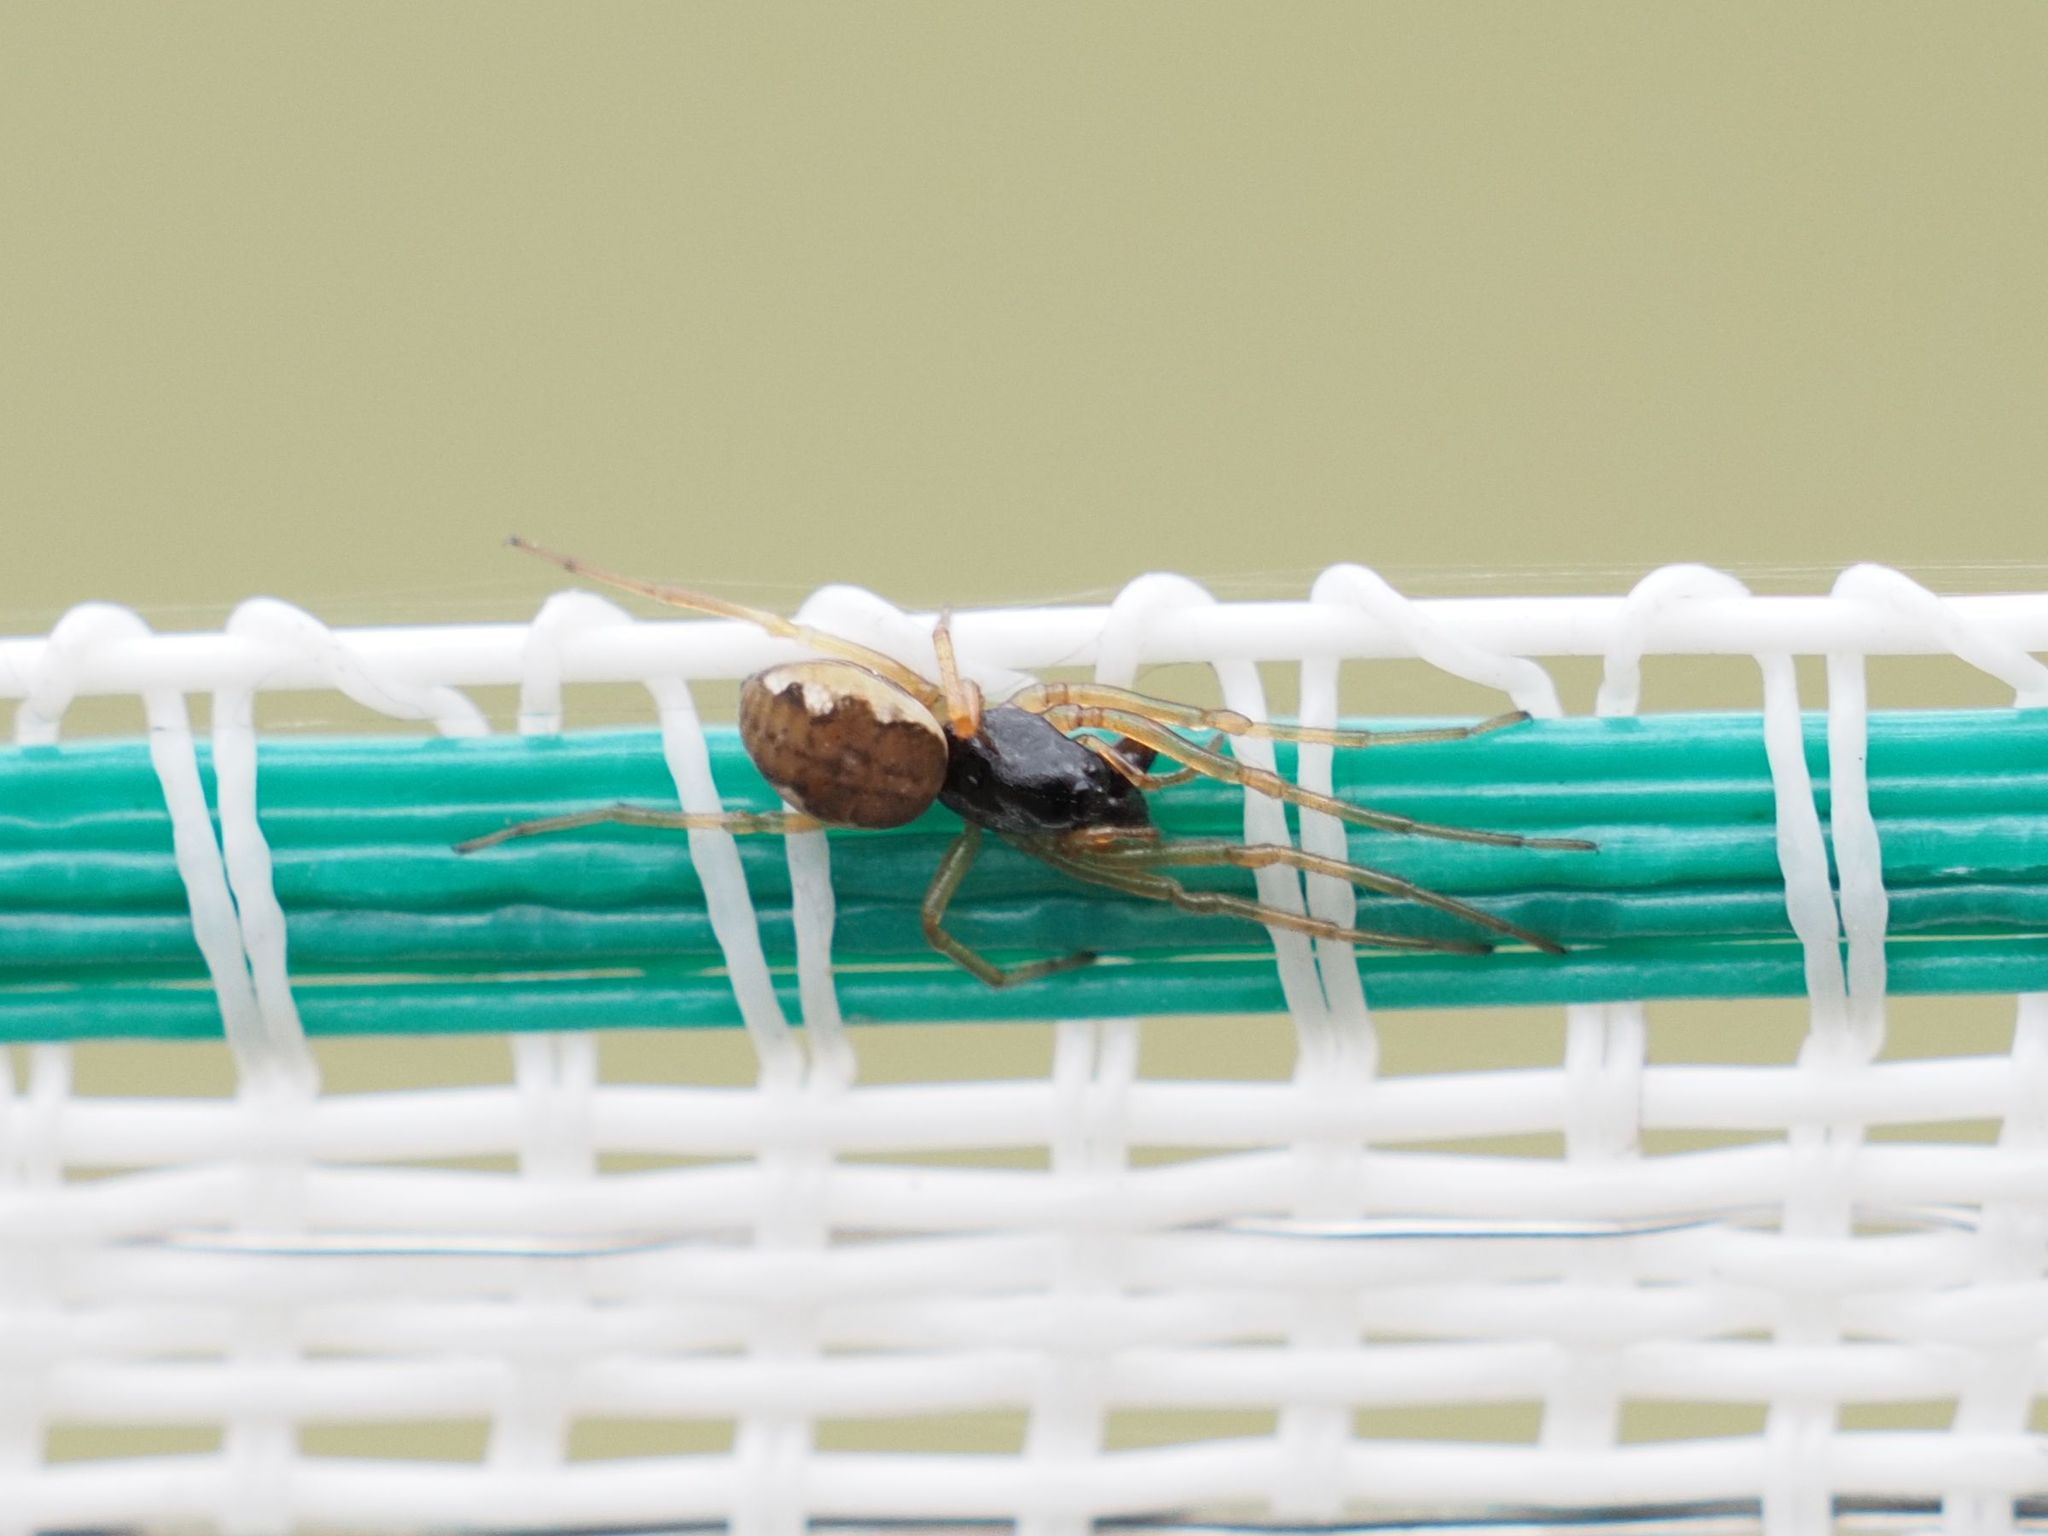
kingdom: Animalia
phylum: Arthropoda
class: Arachnida
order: Araneae
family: Tetragnathidae
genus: Pachygnatha
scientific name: Pachygnatha degeeri
